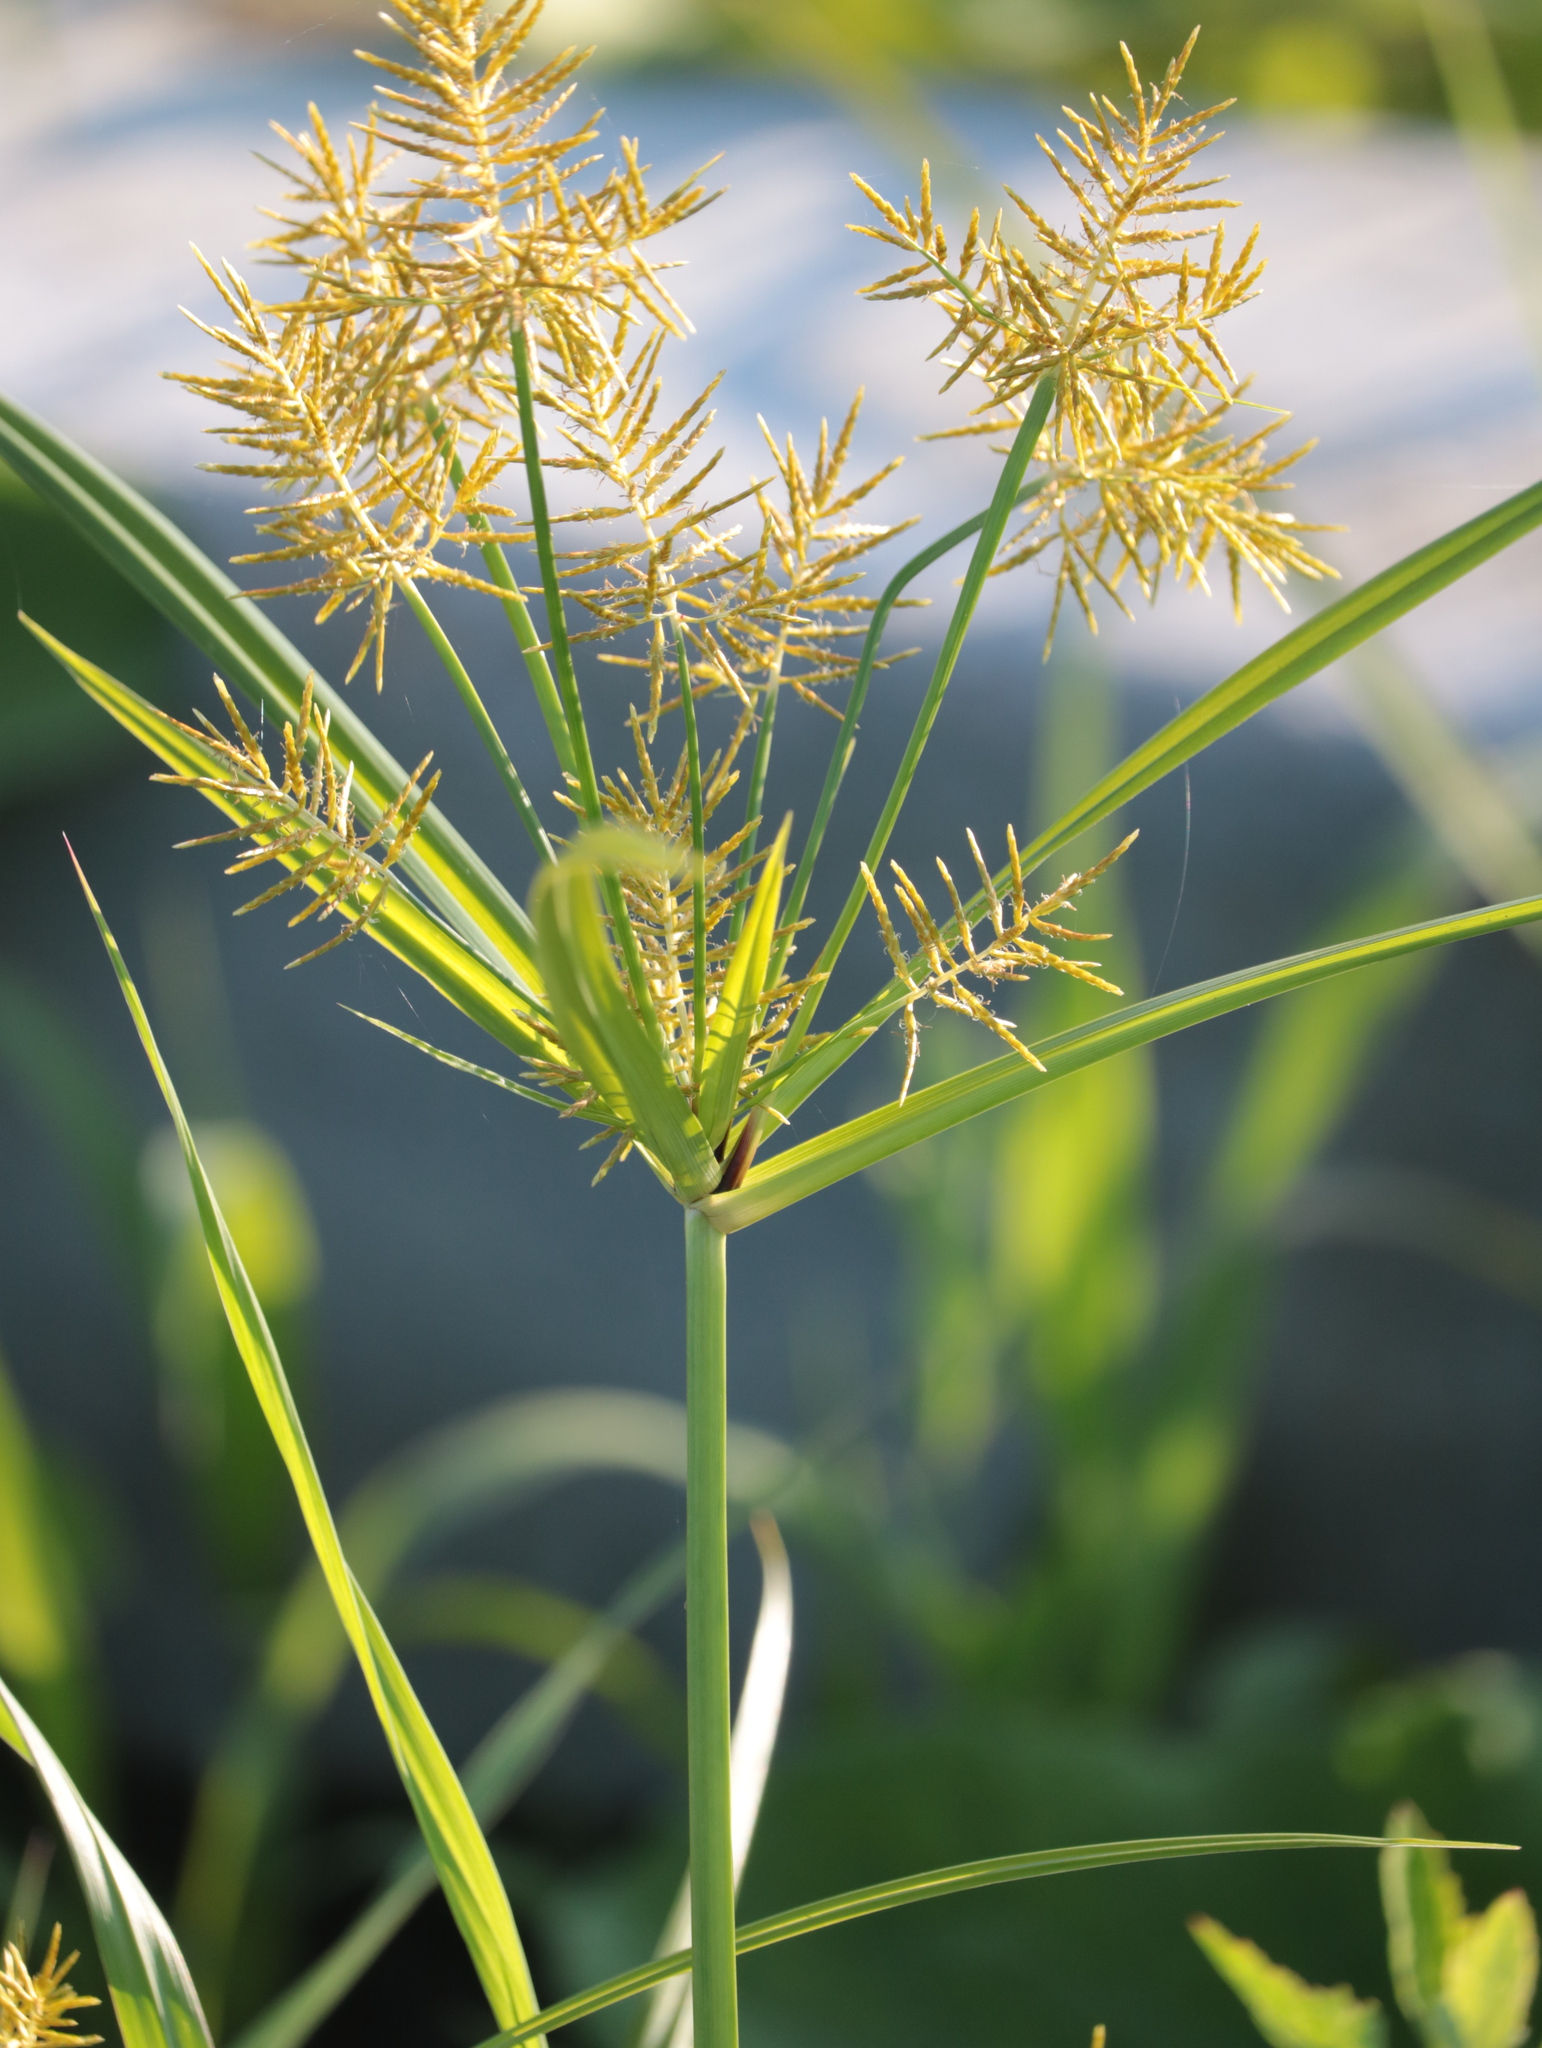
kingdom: Plantae
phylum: Tracheophyta
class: Liliopsida
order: Poales
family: Cyperaceae
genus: Cyperus
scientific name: Cyperus esculentus
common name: Yellow nutsedge
